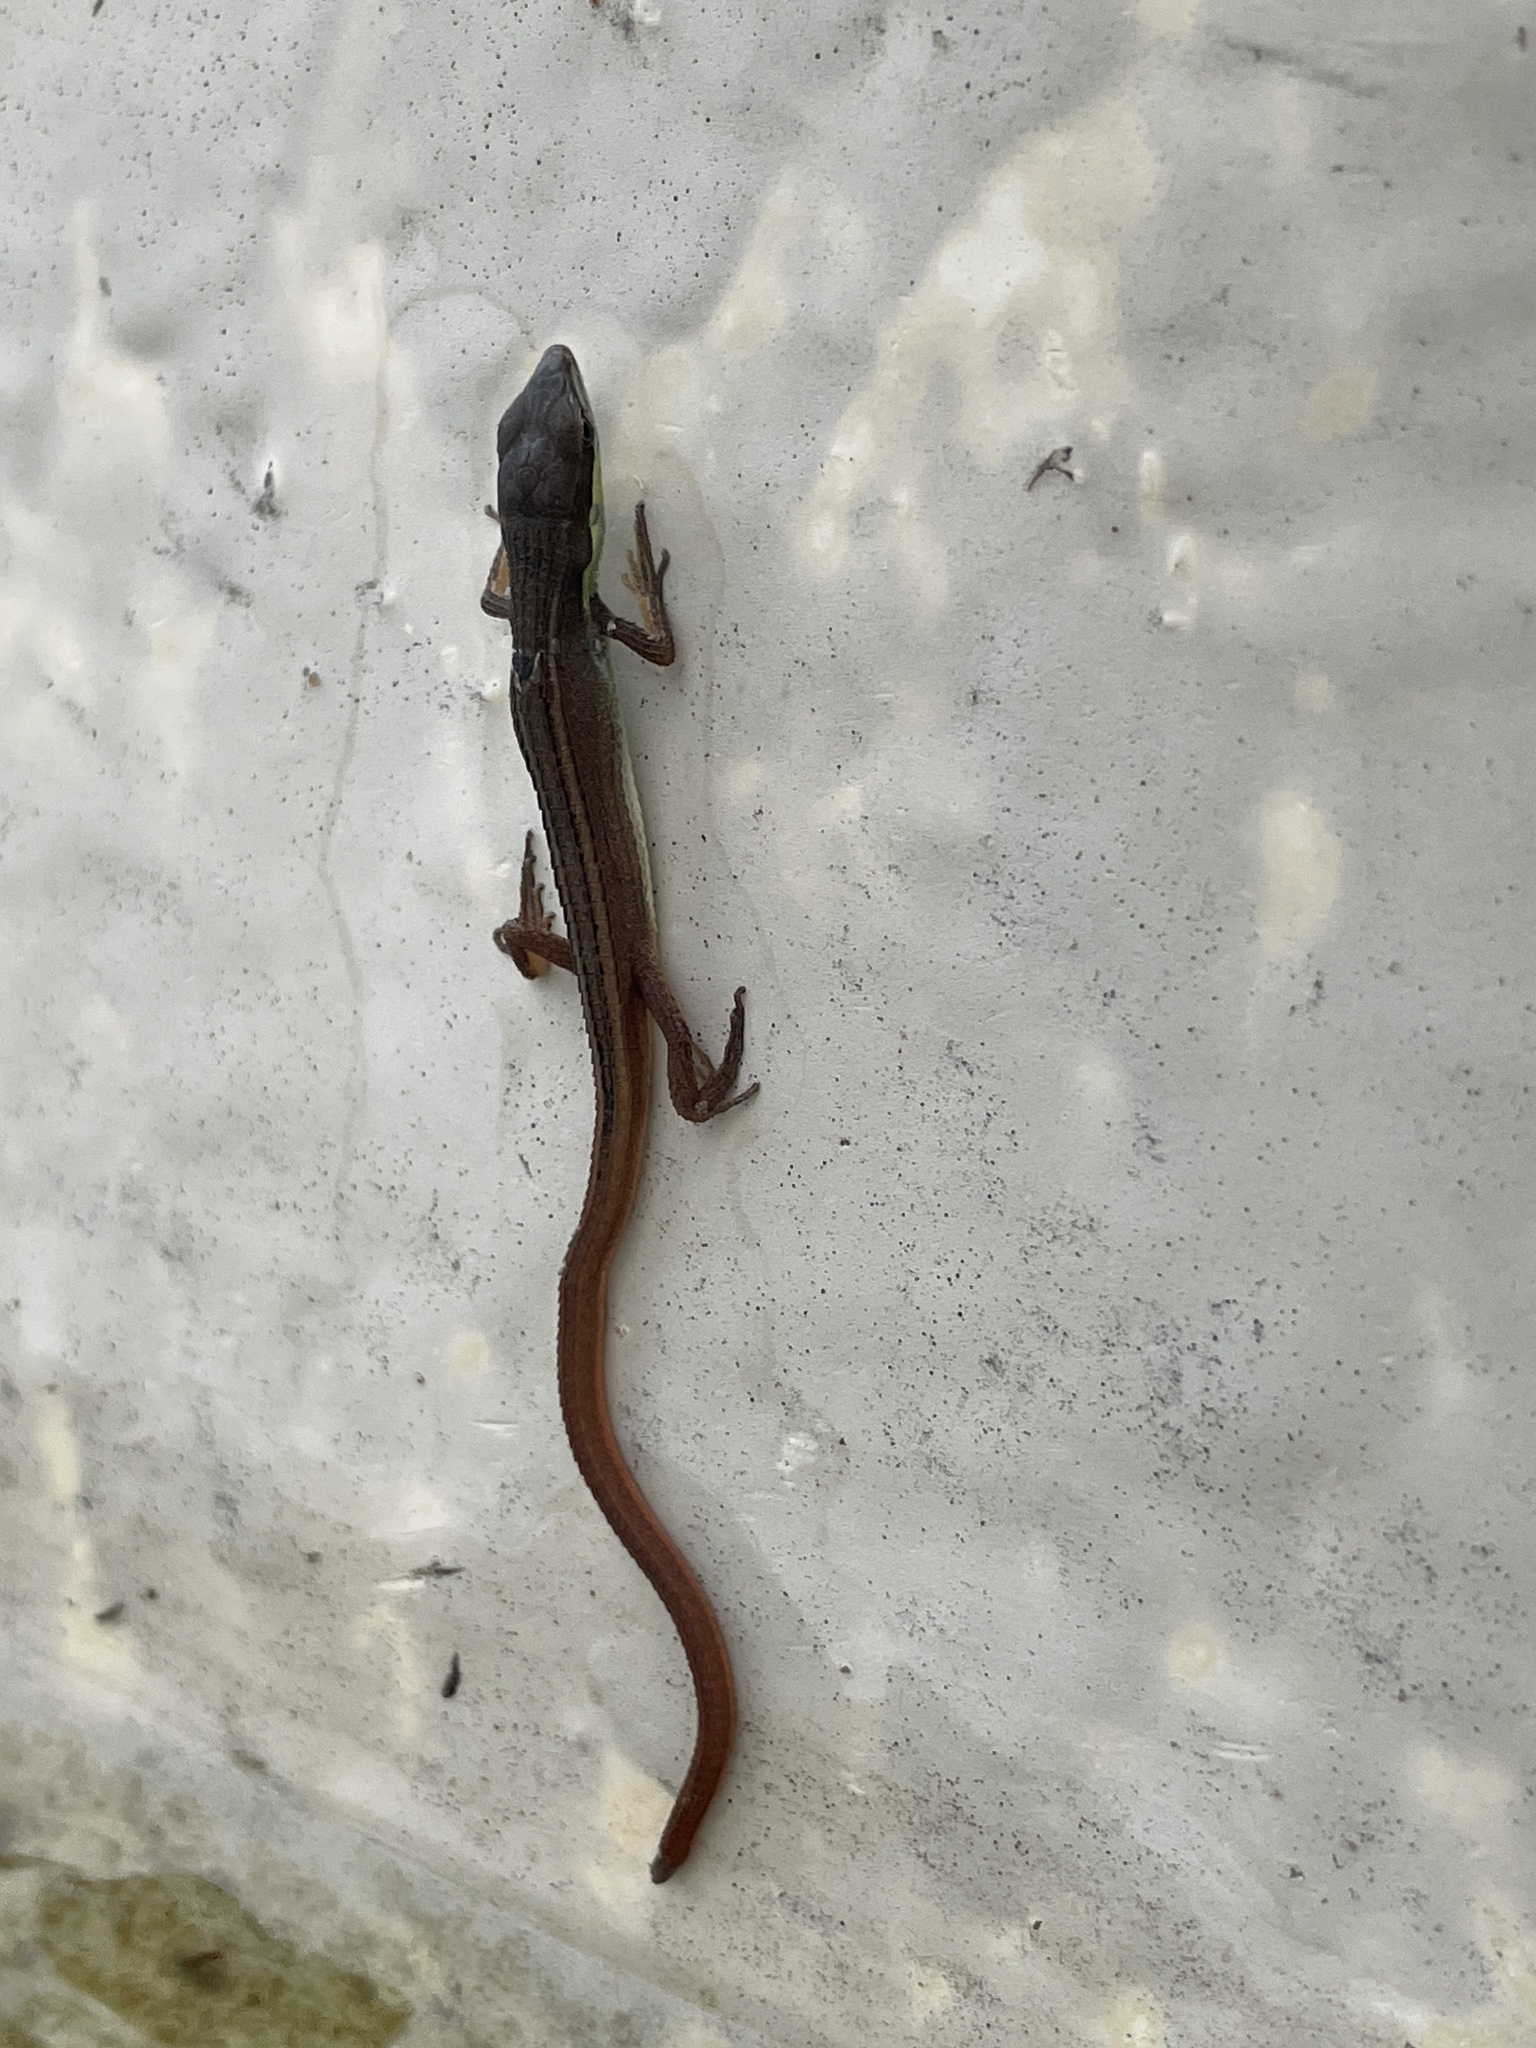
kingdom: Animalia
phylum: Chordata
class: Squamata
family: Lacertidae
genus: Takydromus
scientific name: Takydromus sexlineatus
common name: Asian grass lizard
